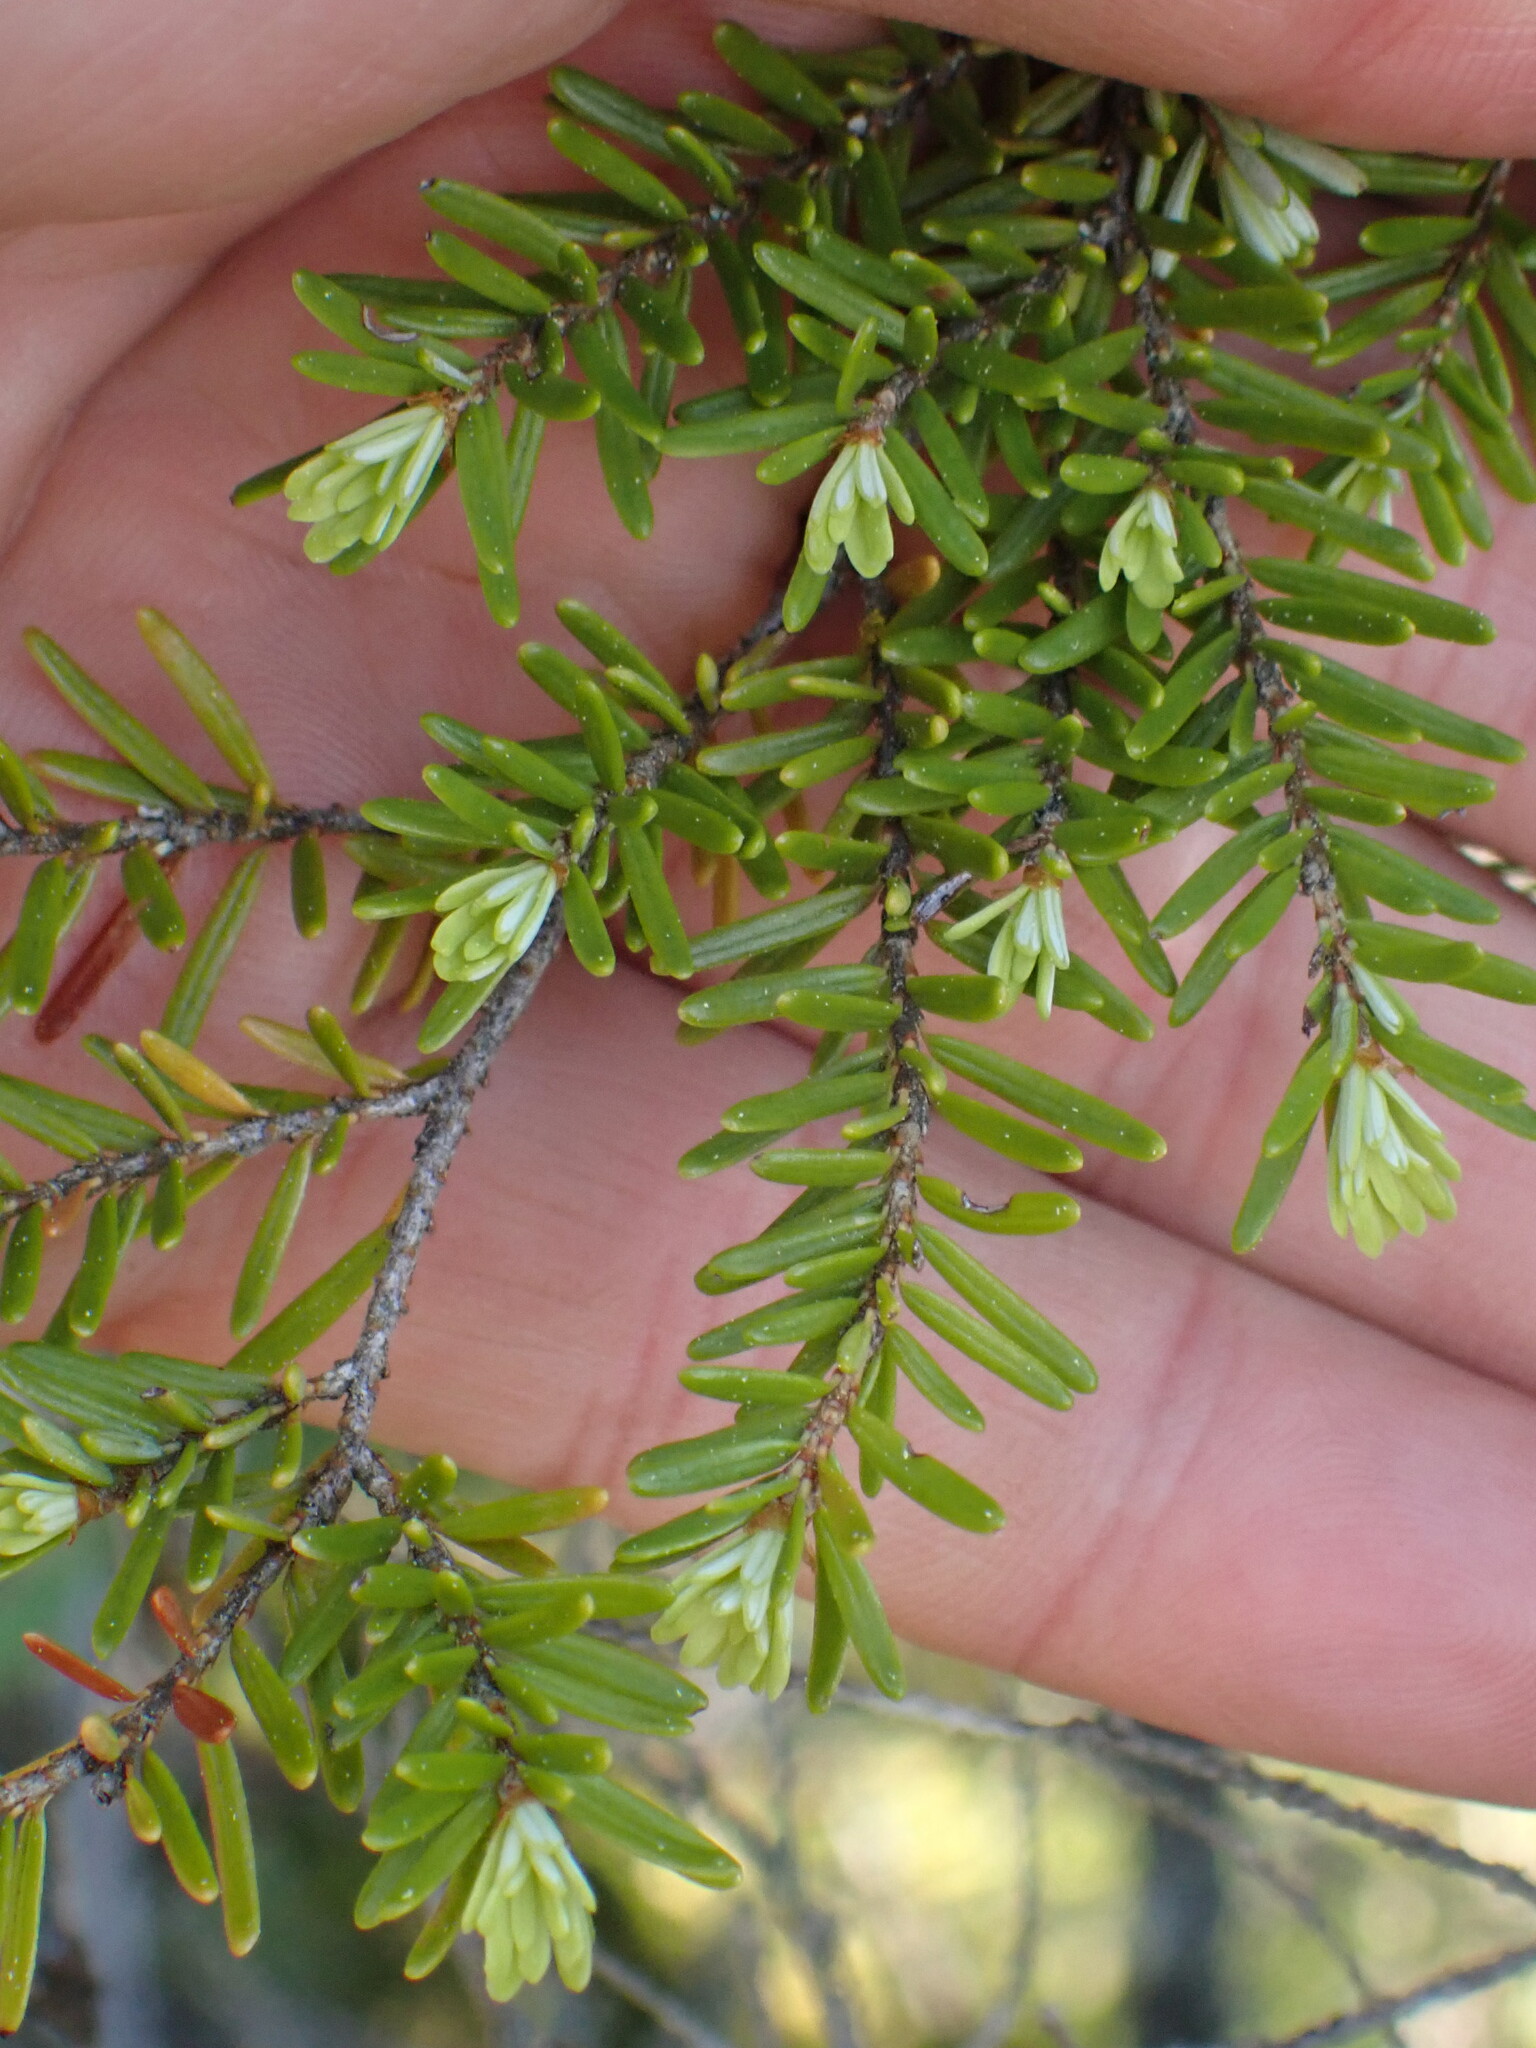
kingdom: Plantae
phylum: Tracheophyta
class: Pinopsida
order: Pinales
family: Pinaceae
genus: Tsuga
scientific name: Tsuga heterophylla
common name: Western hemlock
